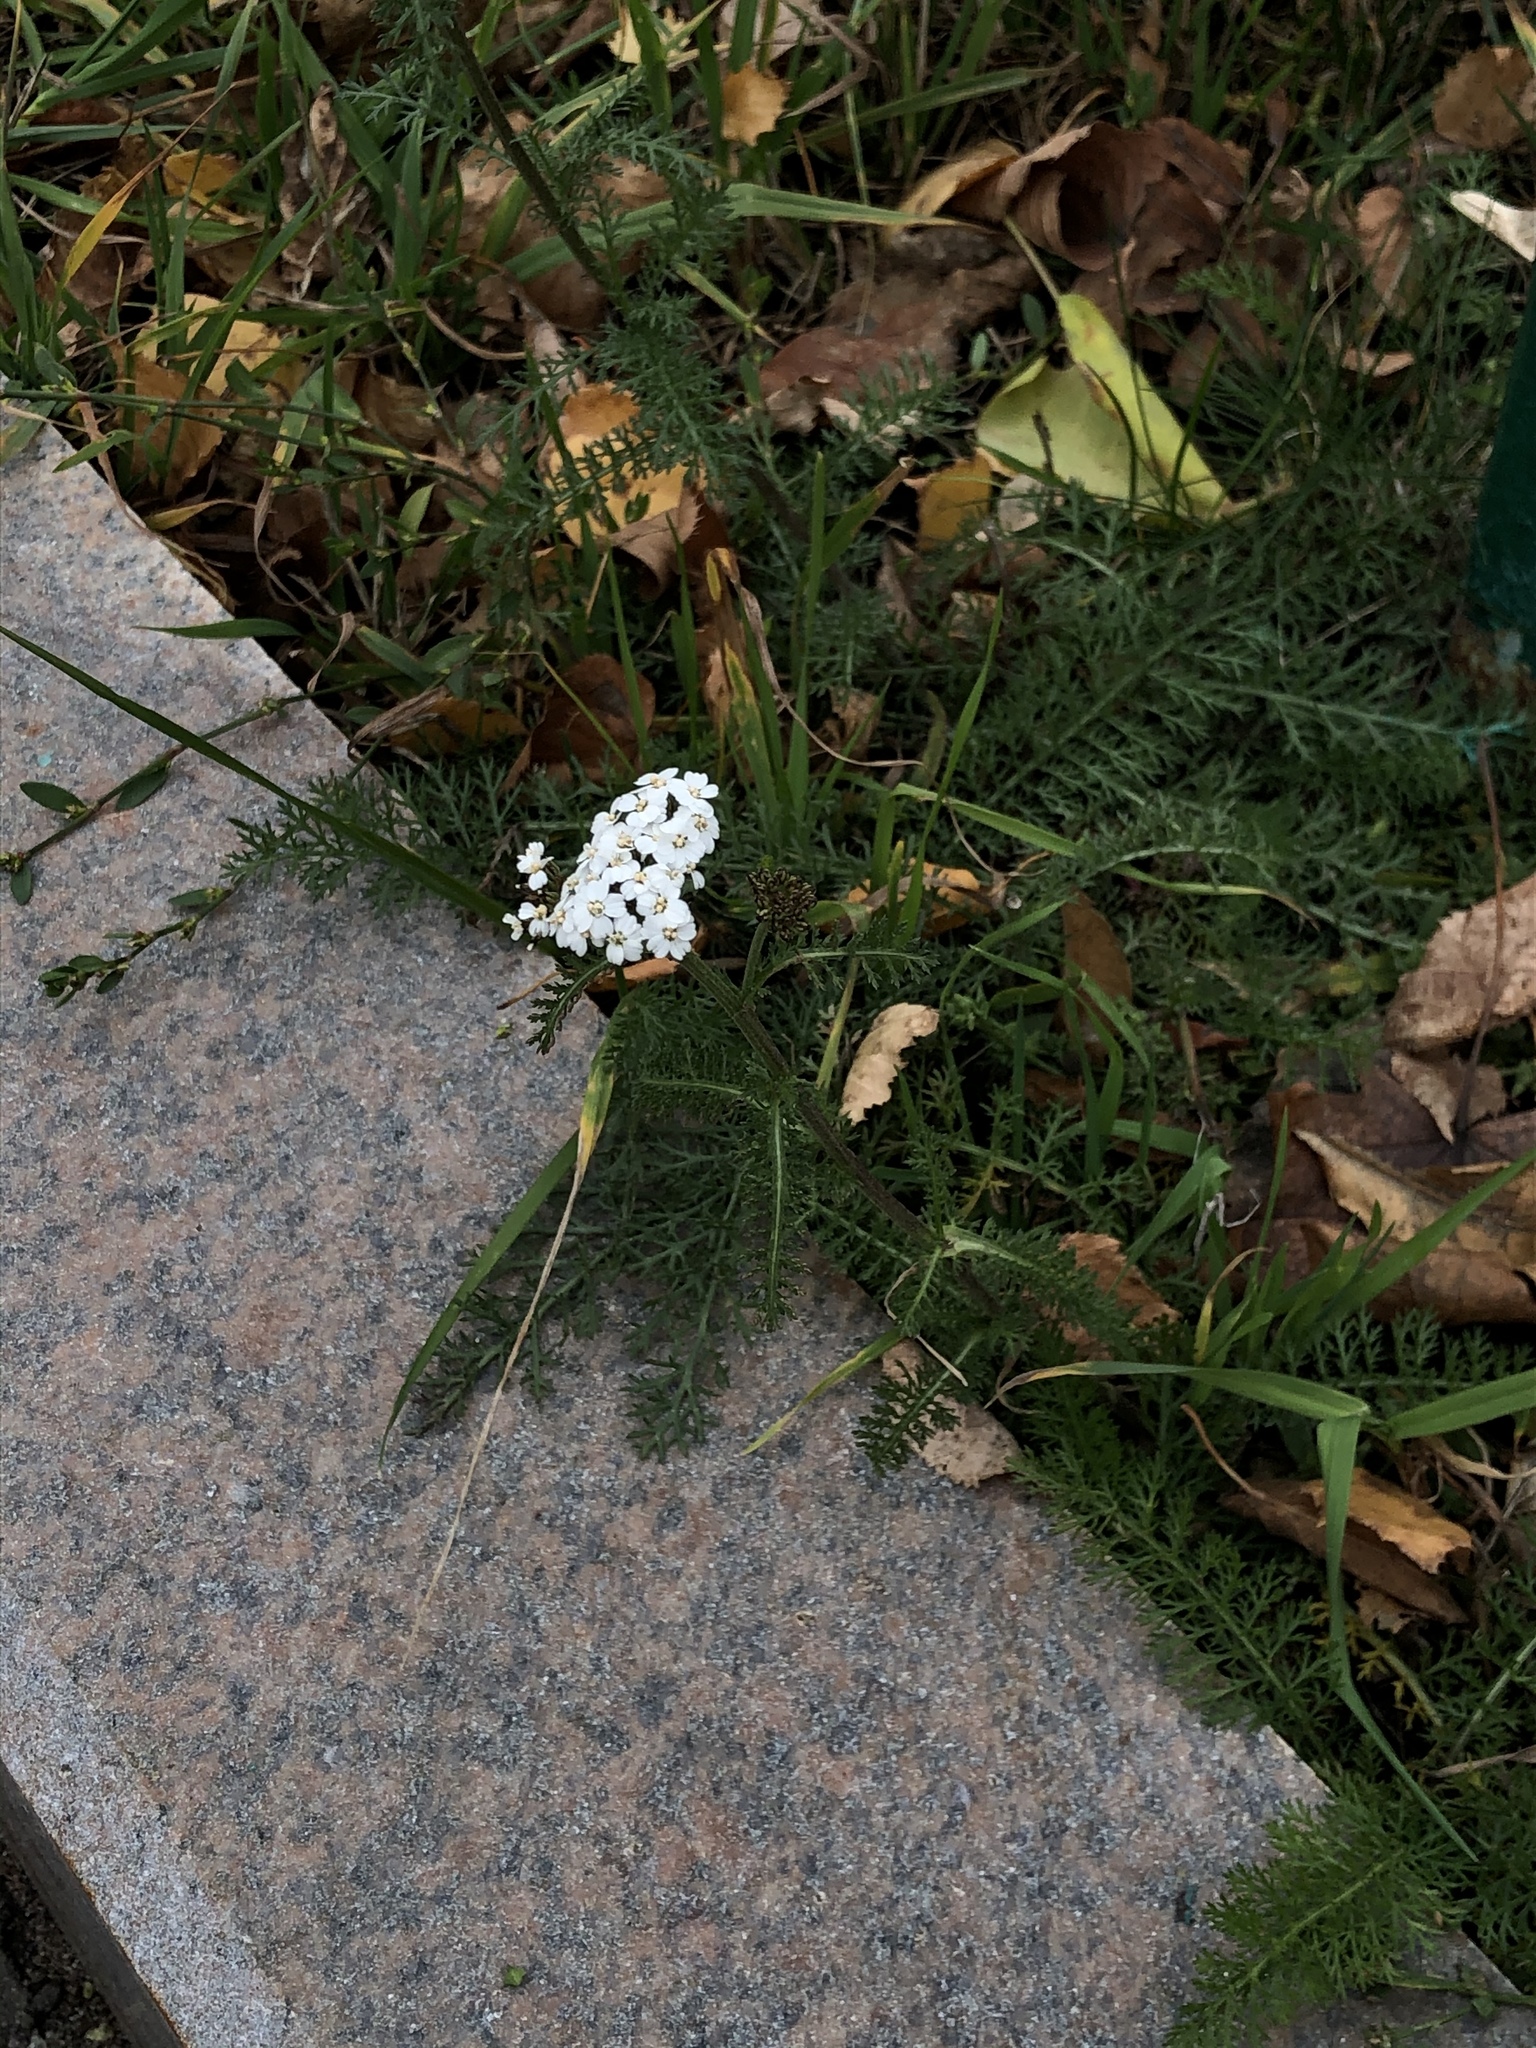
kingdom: Plantae
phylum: Tracheophyta
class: Magnoliopsida
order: Asterales
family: Asteraceae
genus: Achillea
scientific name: Achillea millefolium
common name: Yarrow
